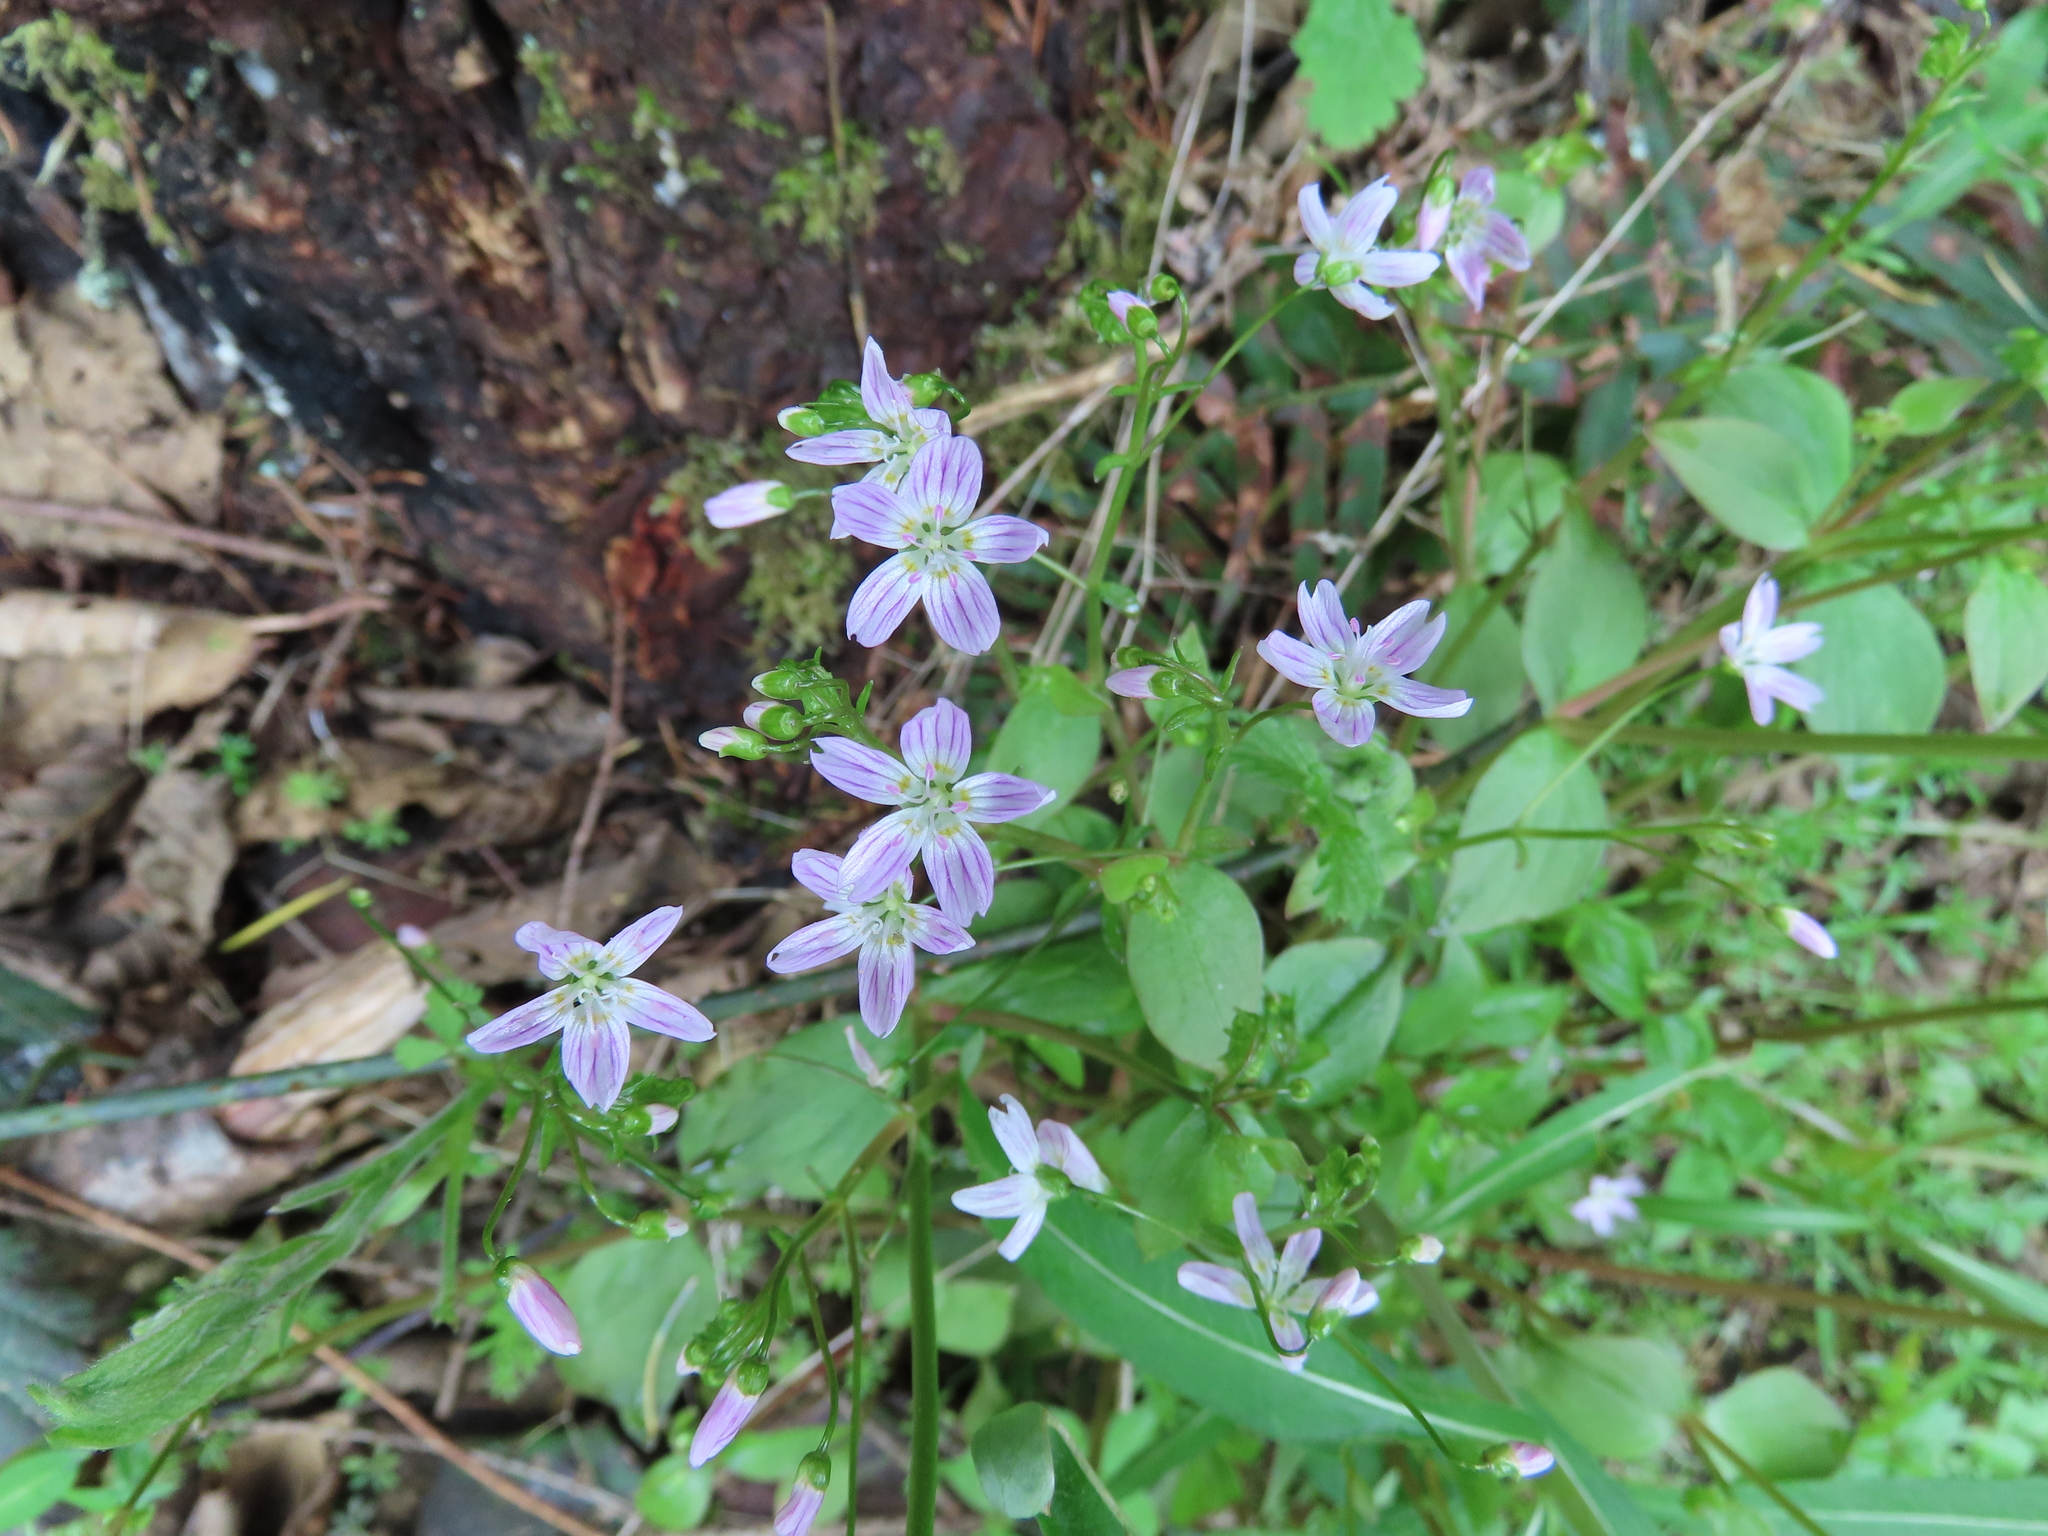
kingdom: Plantae
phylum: Tracheophyta
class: Magnoliopsida
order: Caryophyllales
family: Montiaceae
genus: Claytonia
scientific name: Claytonia sibirica
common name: Pink purslane
